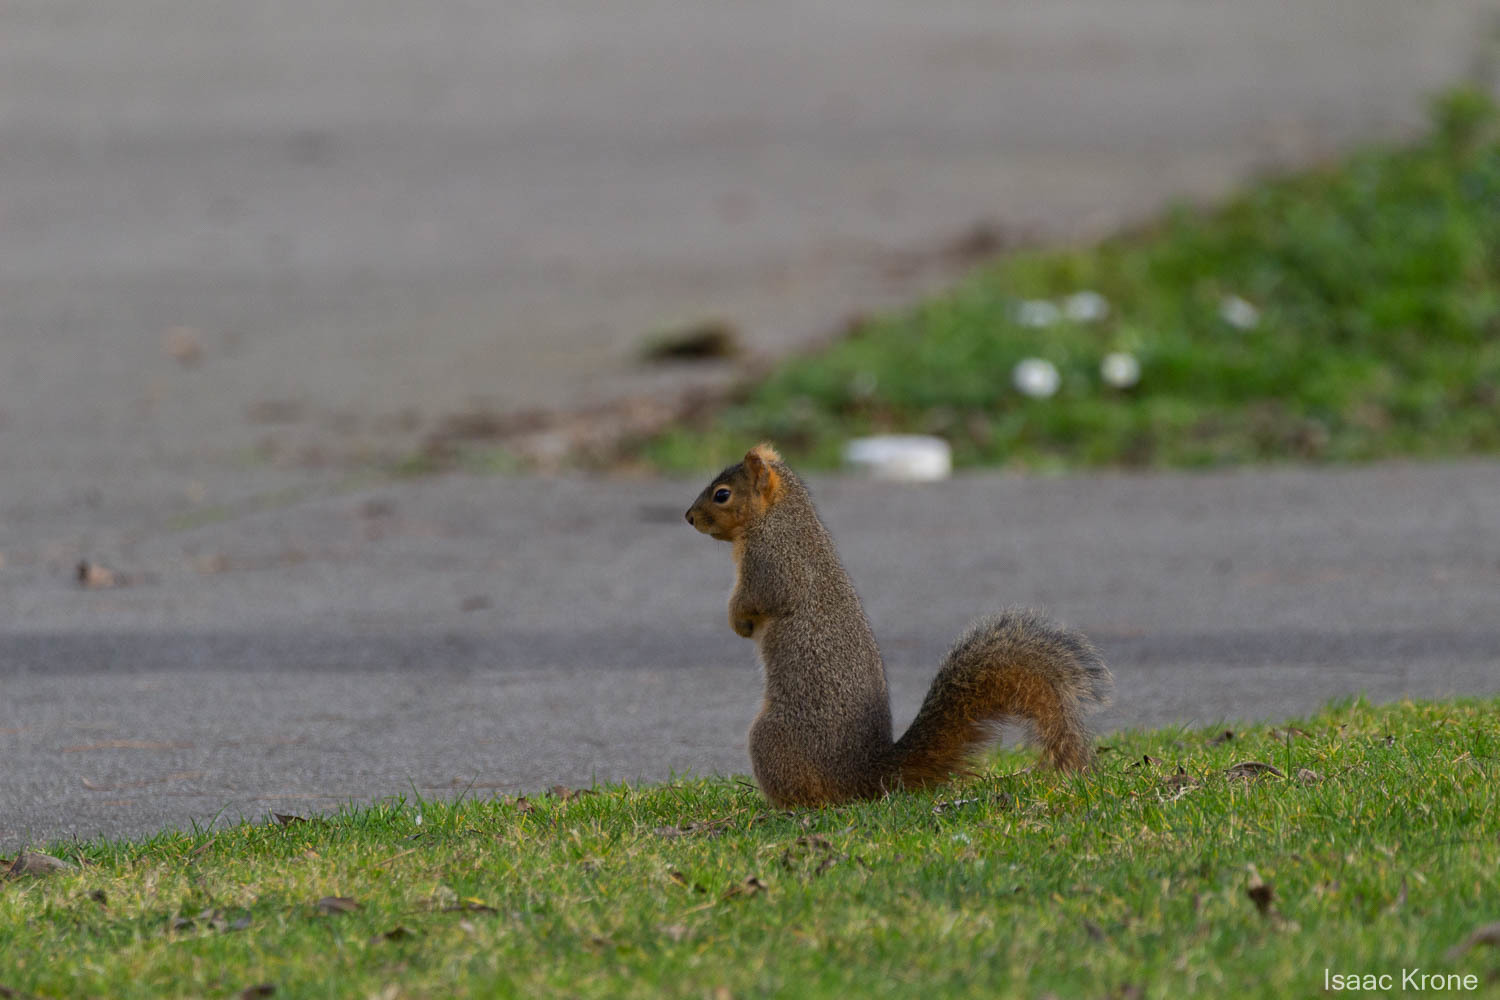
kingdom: Animalia
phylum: Chordata
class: Mammalia
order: Rodentia
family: Sciuridae
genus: Sciurus
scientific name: Sciurus niger
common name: Fox squirrel
